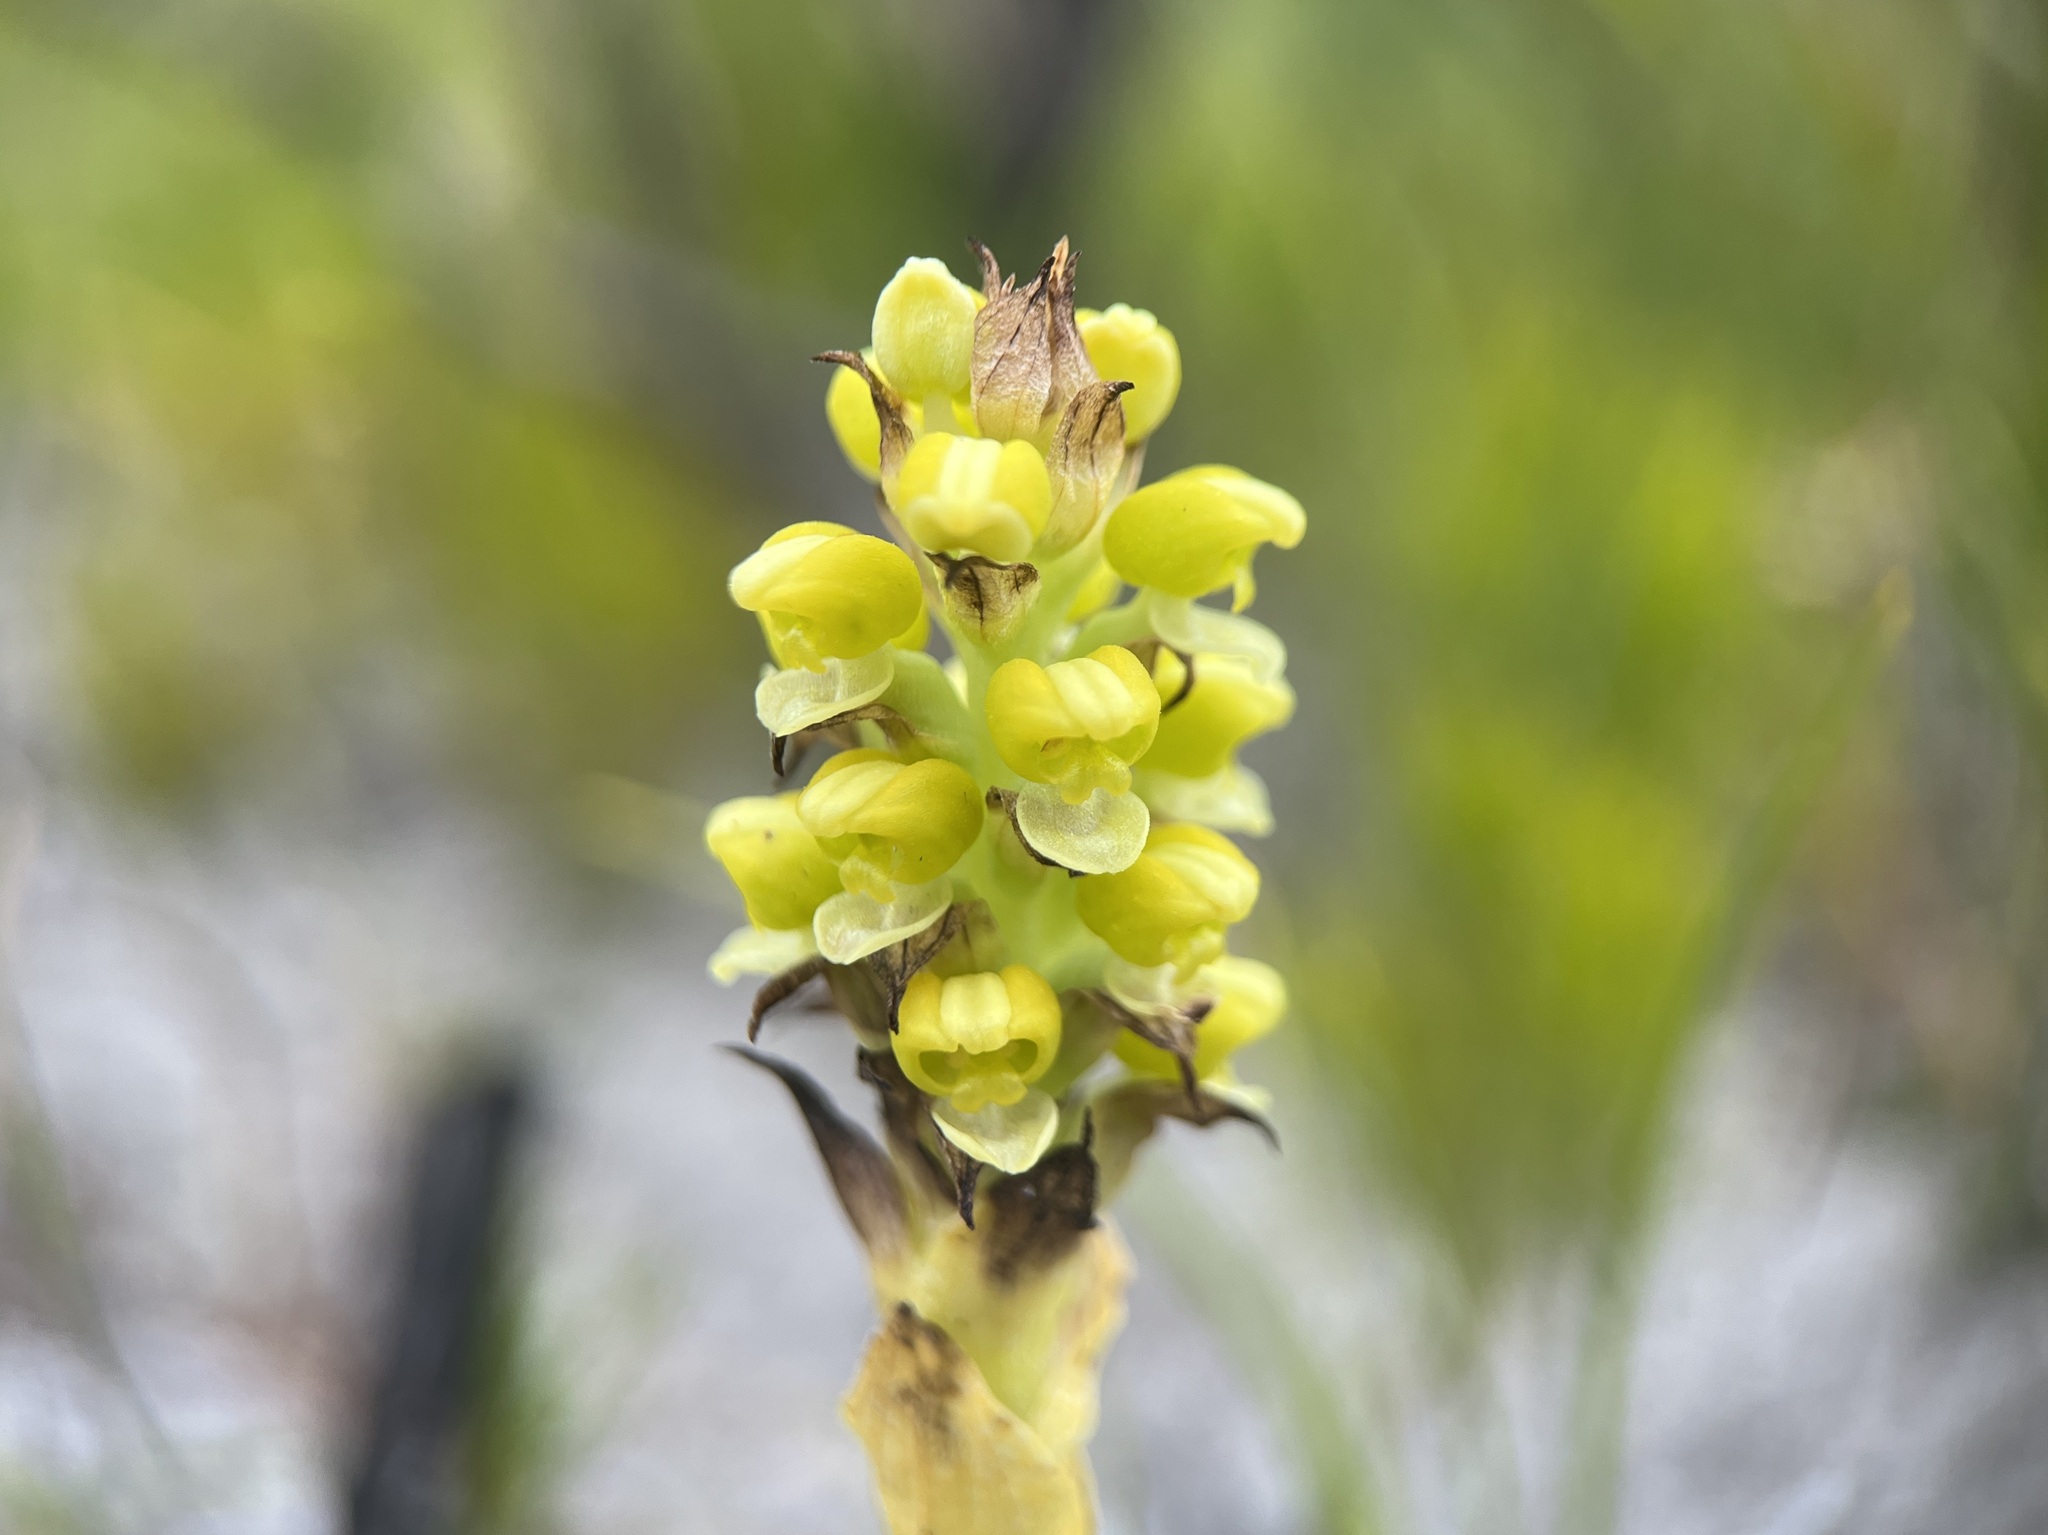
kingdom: Plantae
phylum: Tracheophyta
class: Liliopsida
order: Asparagales
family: Orchidaceae
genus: Corycium
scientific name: Corycium excisum
